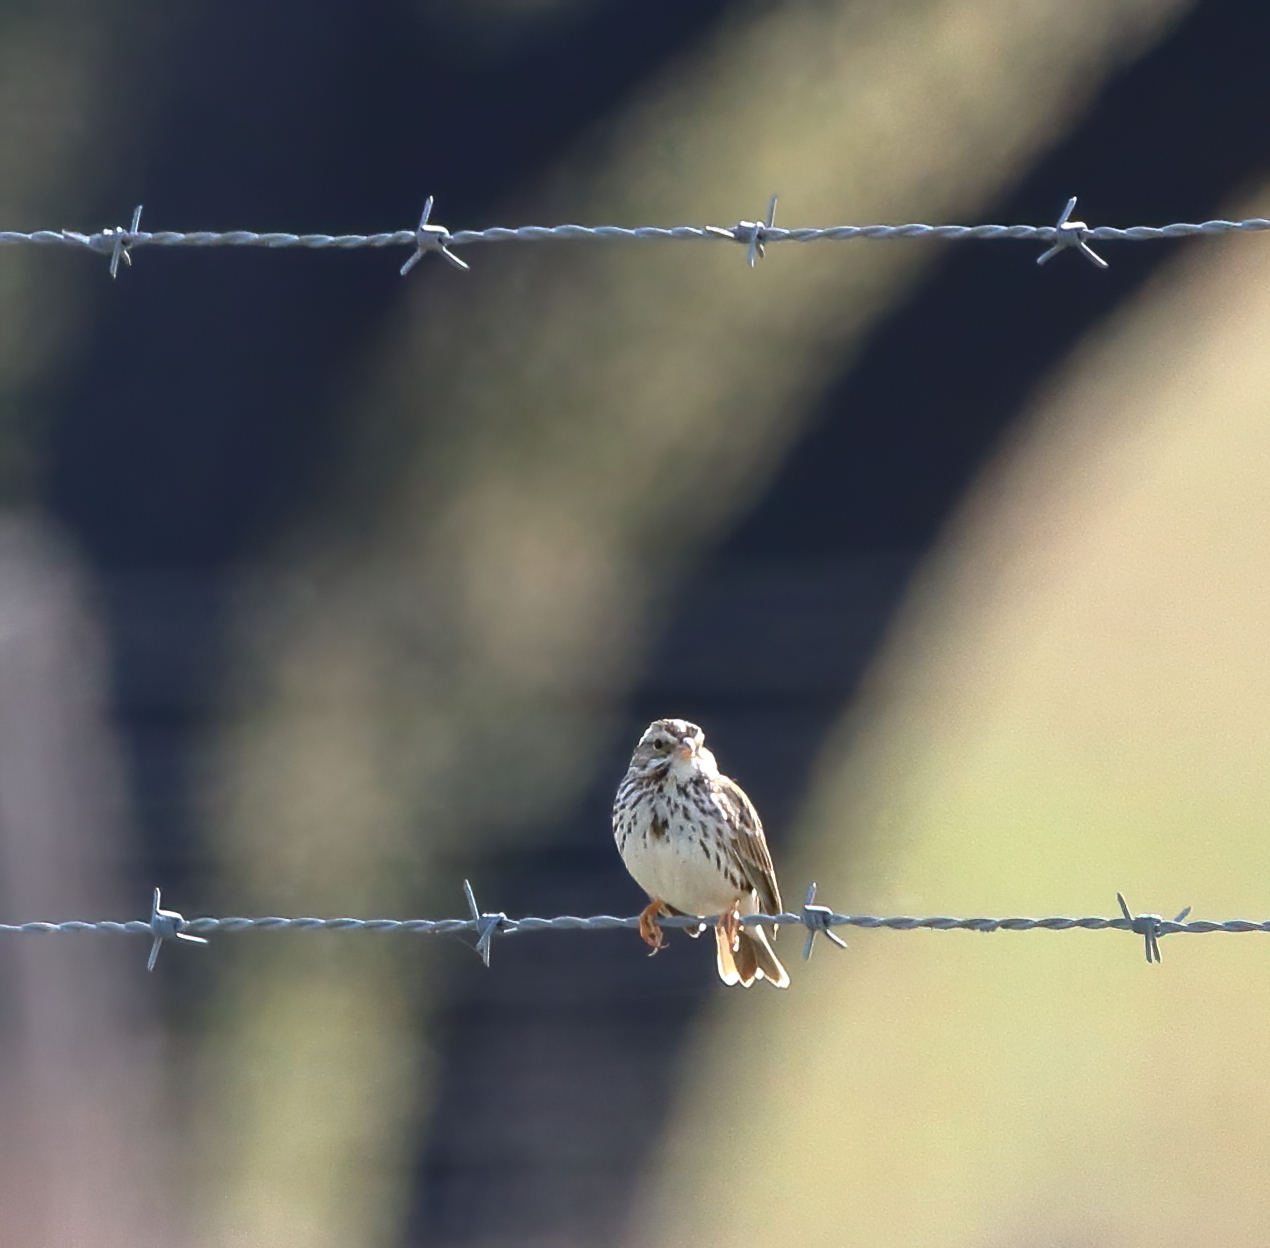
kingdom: Animalia
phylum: Chordata
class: Aves
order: Passeriformes
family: Passerellidae
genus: Passerculus
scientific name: Passerculus sandwichensis
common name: Savannah sparrow
